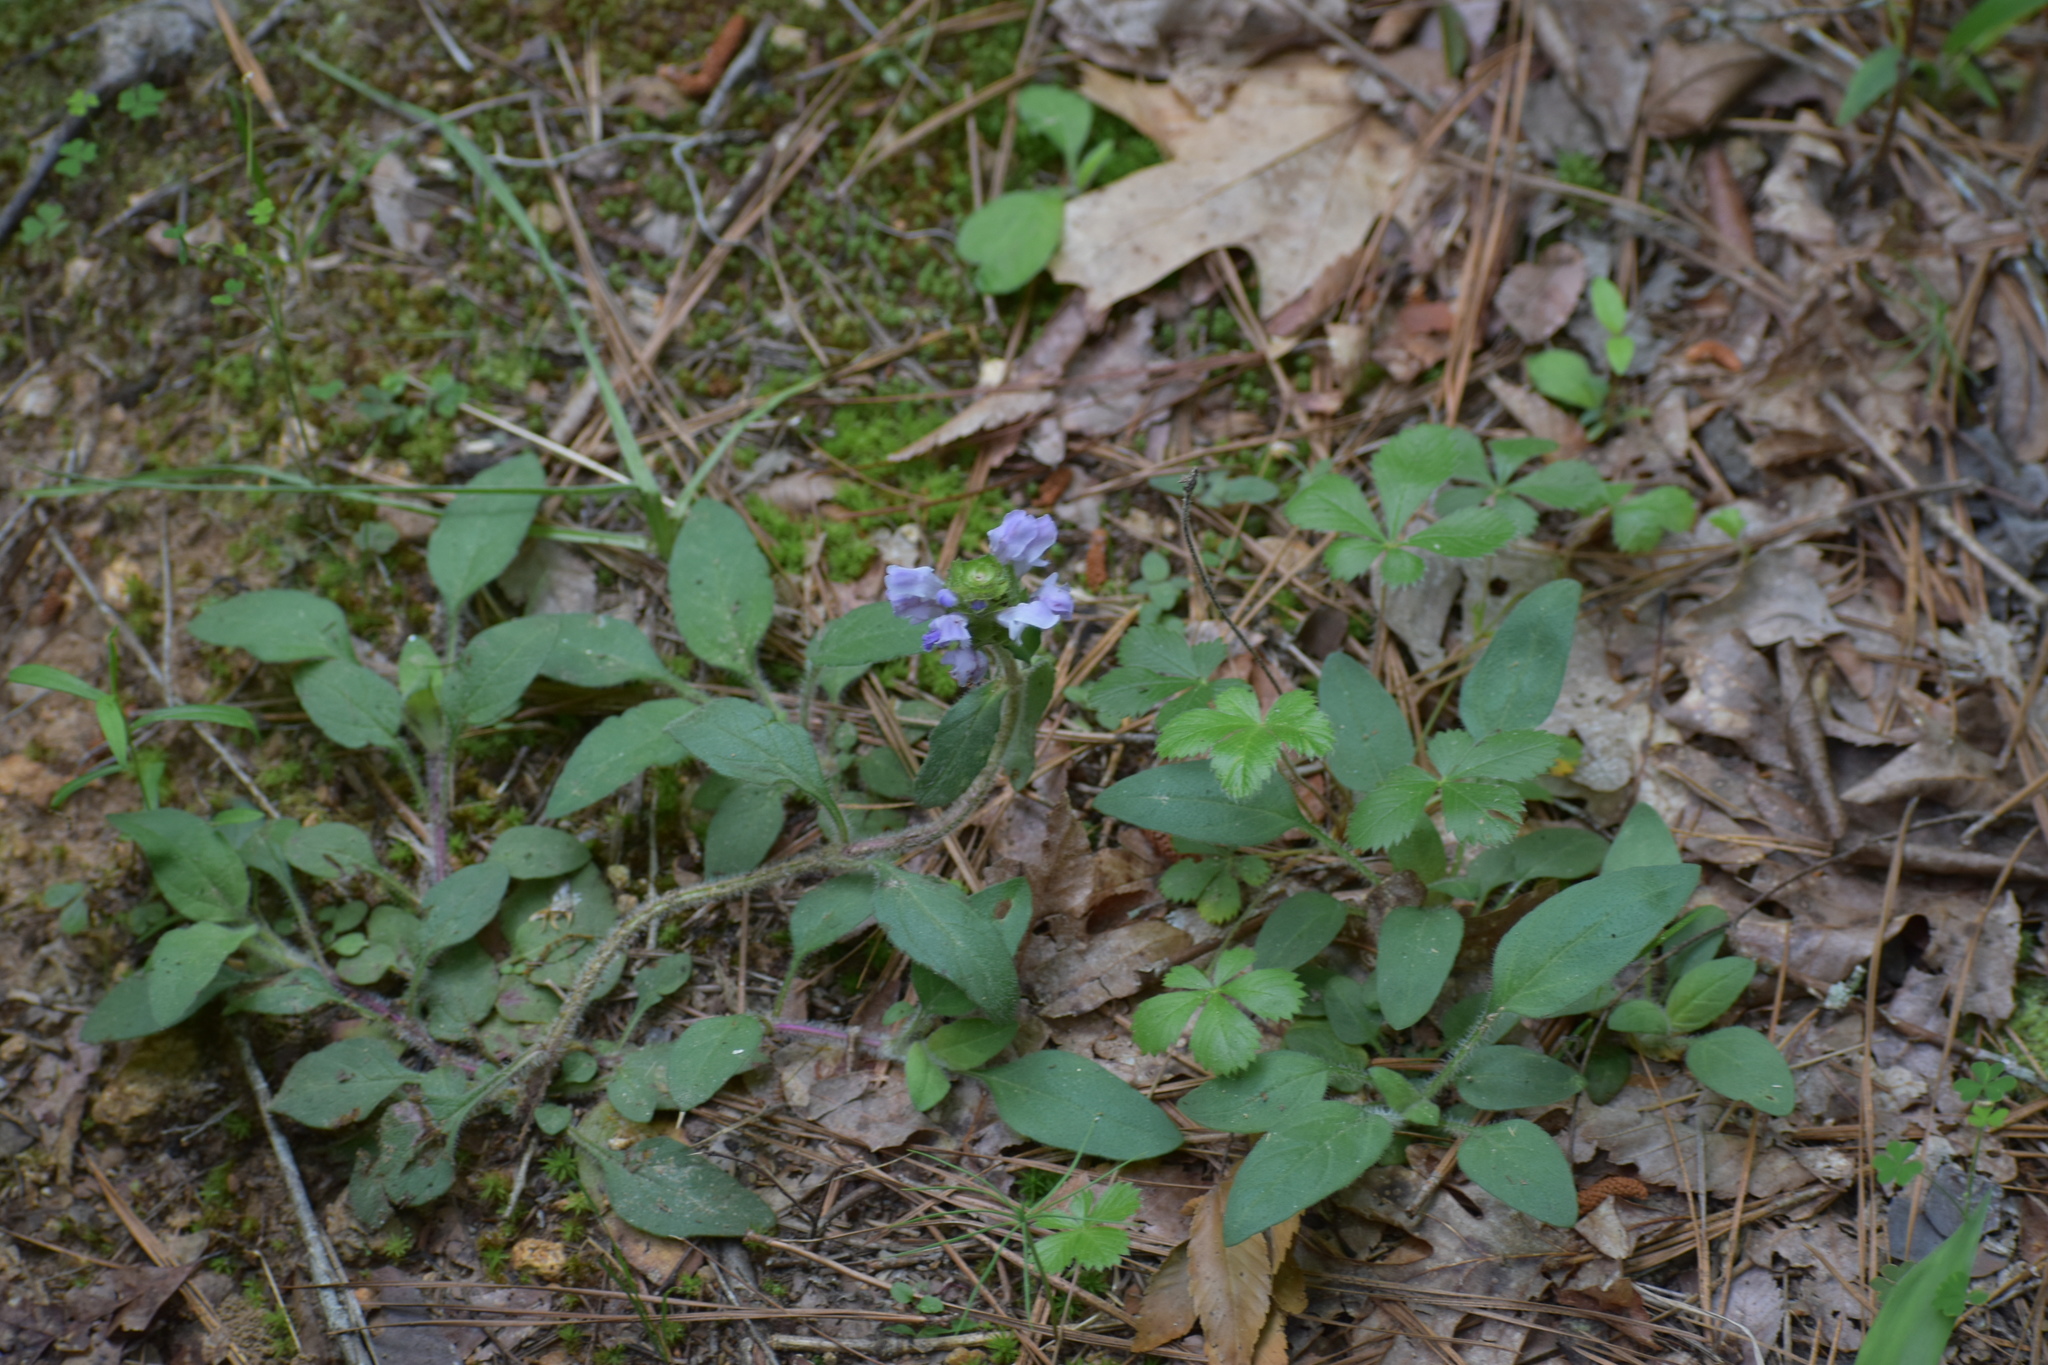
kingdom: Plantae
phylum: Tracheophyta
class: Magnoliopsida
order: Lamiales
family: Lamiaceae
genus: Prunella
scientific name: Prunella vulgaris
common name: Heal-all
